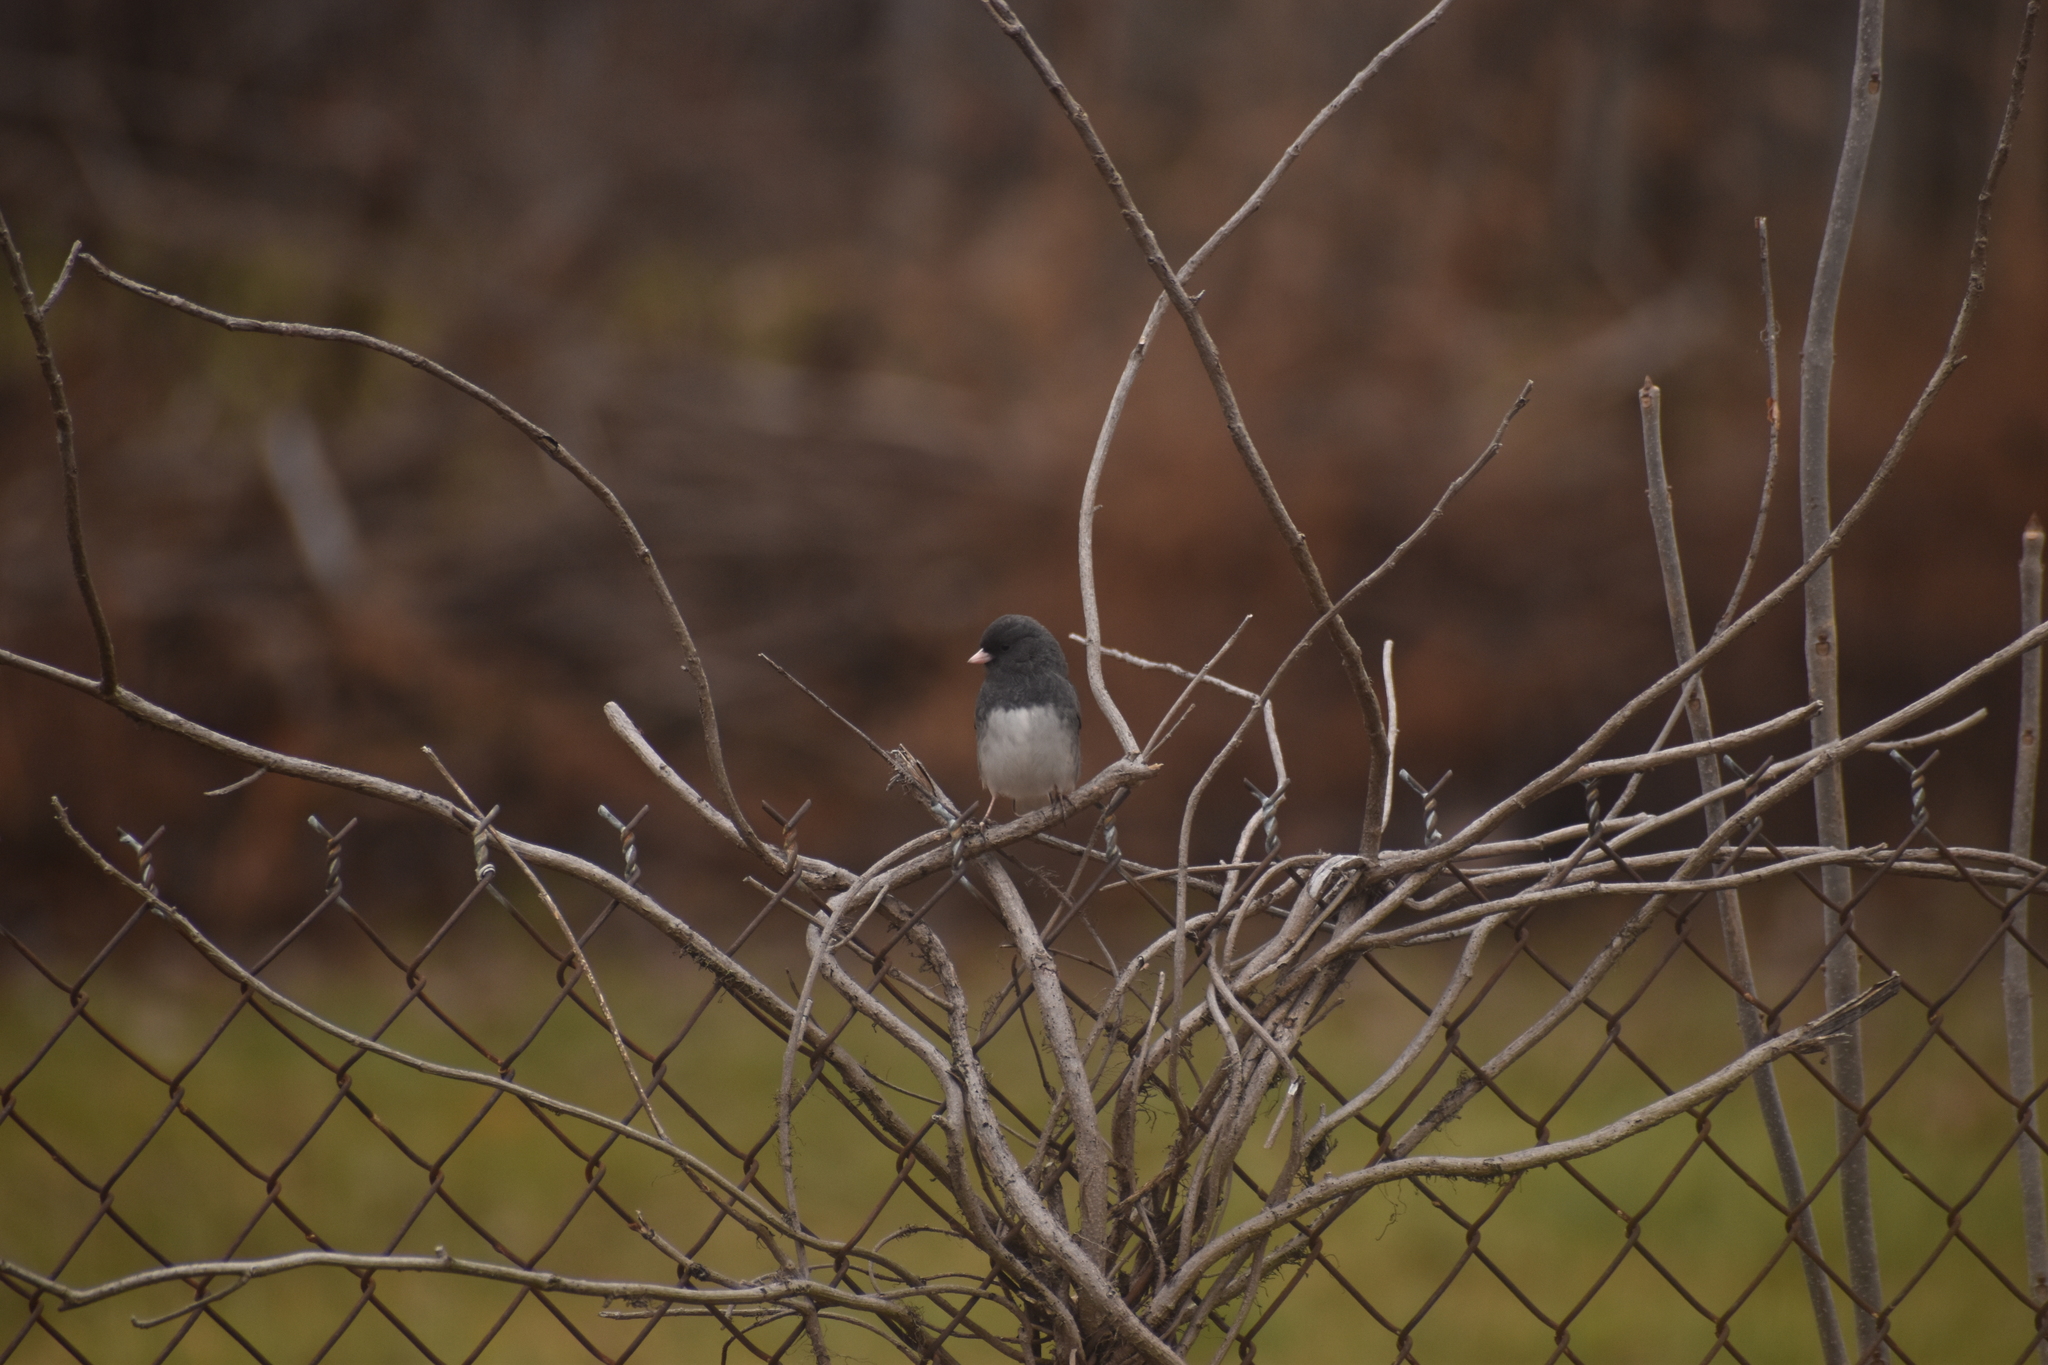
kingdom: Animalia
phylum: Chordata
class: Aves
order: Passeriformes
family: Passerellidae
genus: Junco
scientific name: Junco hyemalis
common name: Dark-eyed junco
